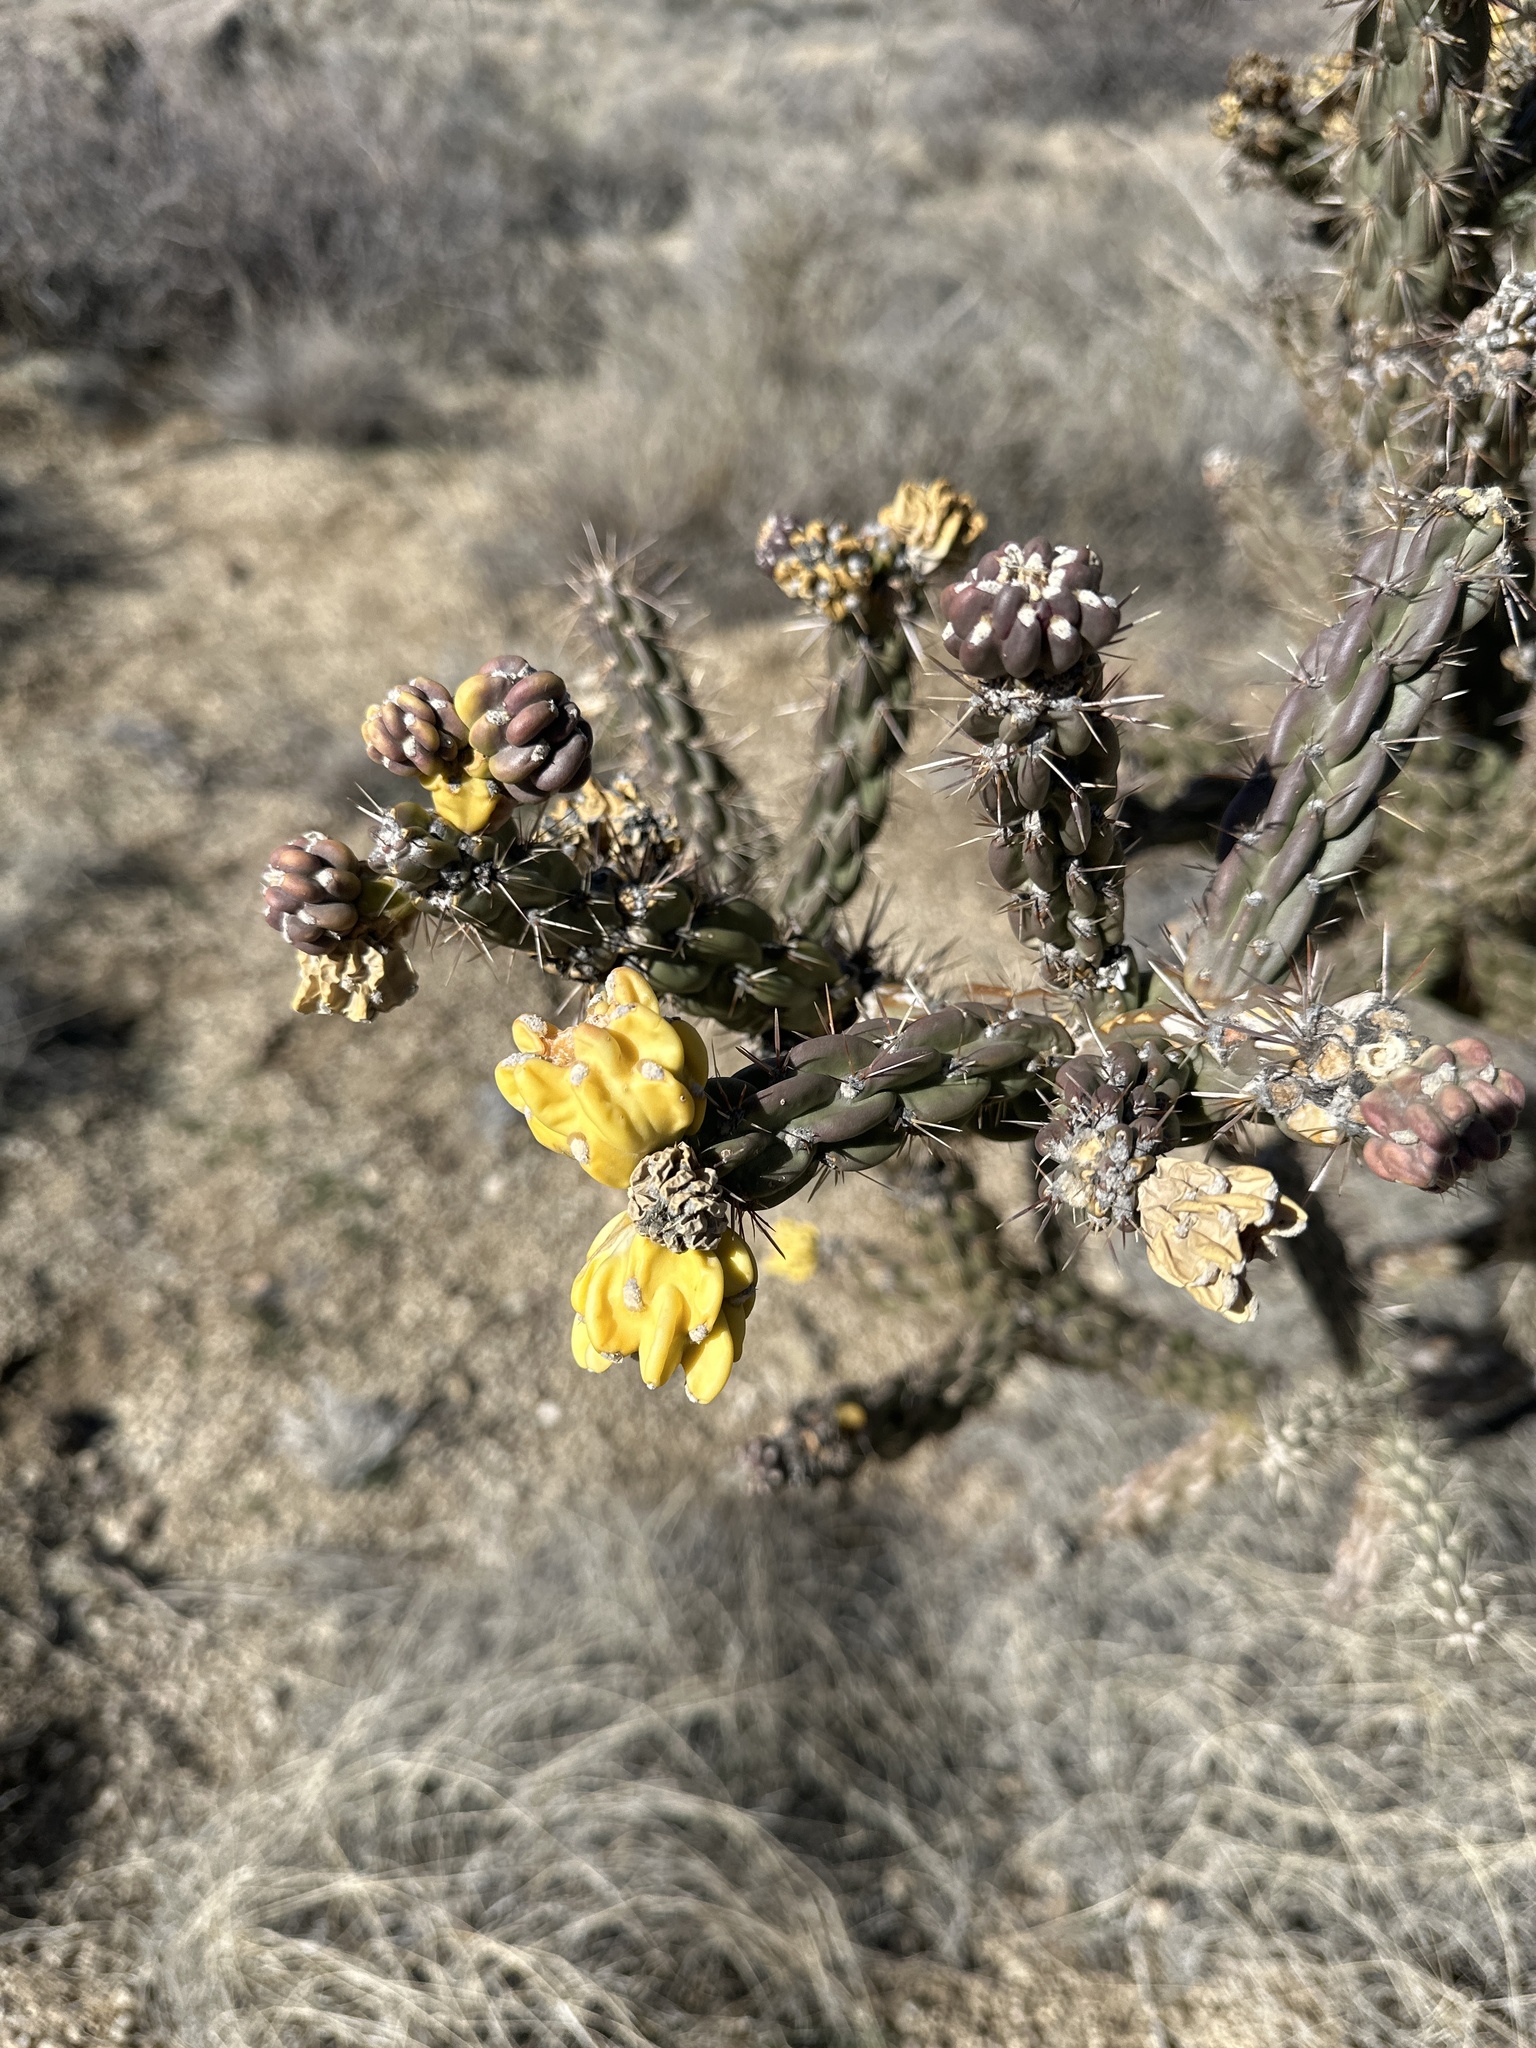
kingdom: Plantae
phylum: Tracheophyta
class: Magnoliopsida
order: Caryophyllales
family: Cactaceae
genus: Cylindropuntia
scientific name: Cylindropuntia imbricata
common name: Candelabrum cactus
